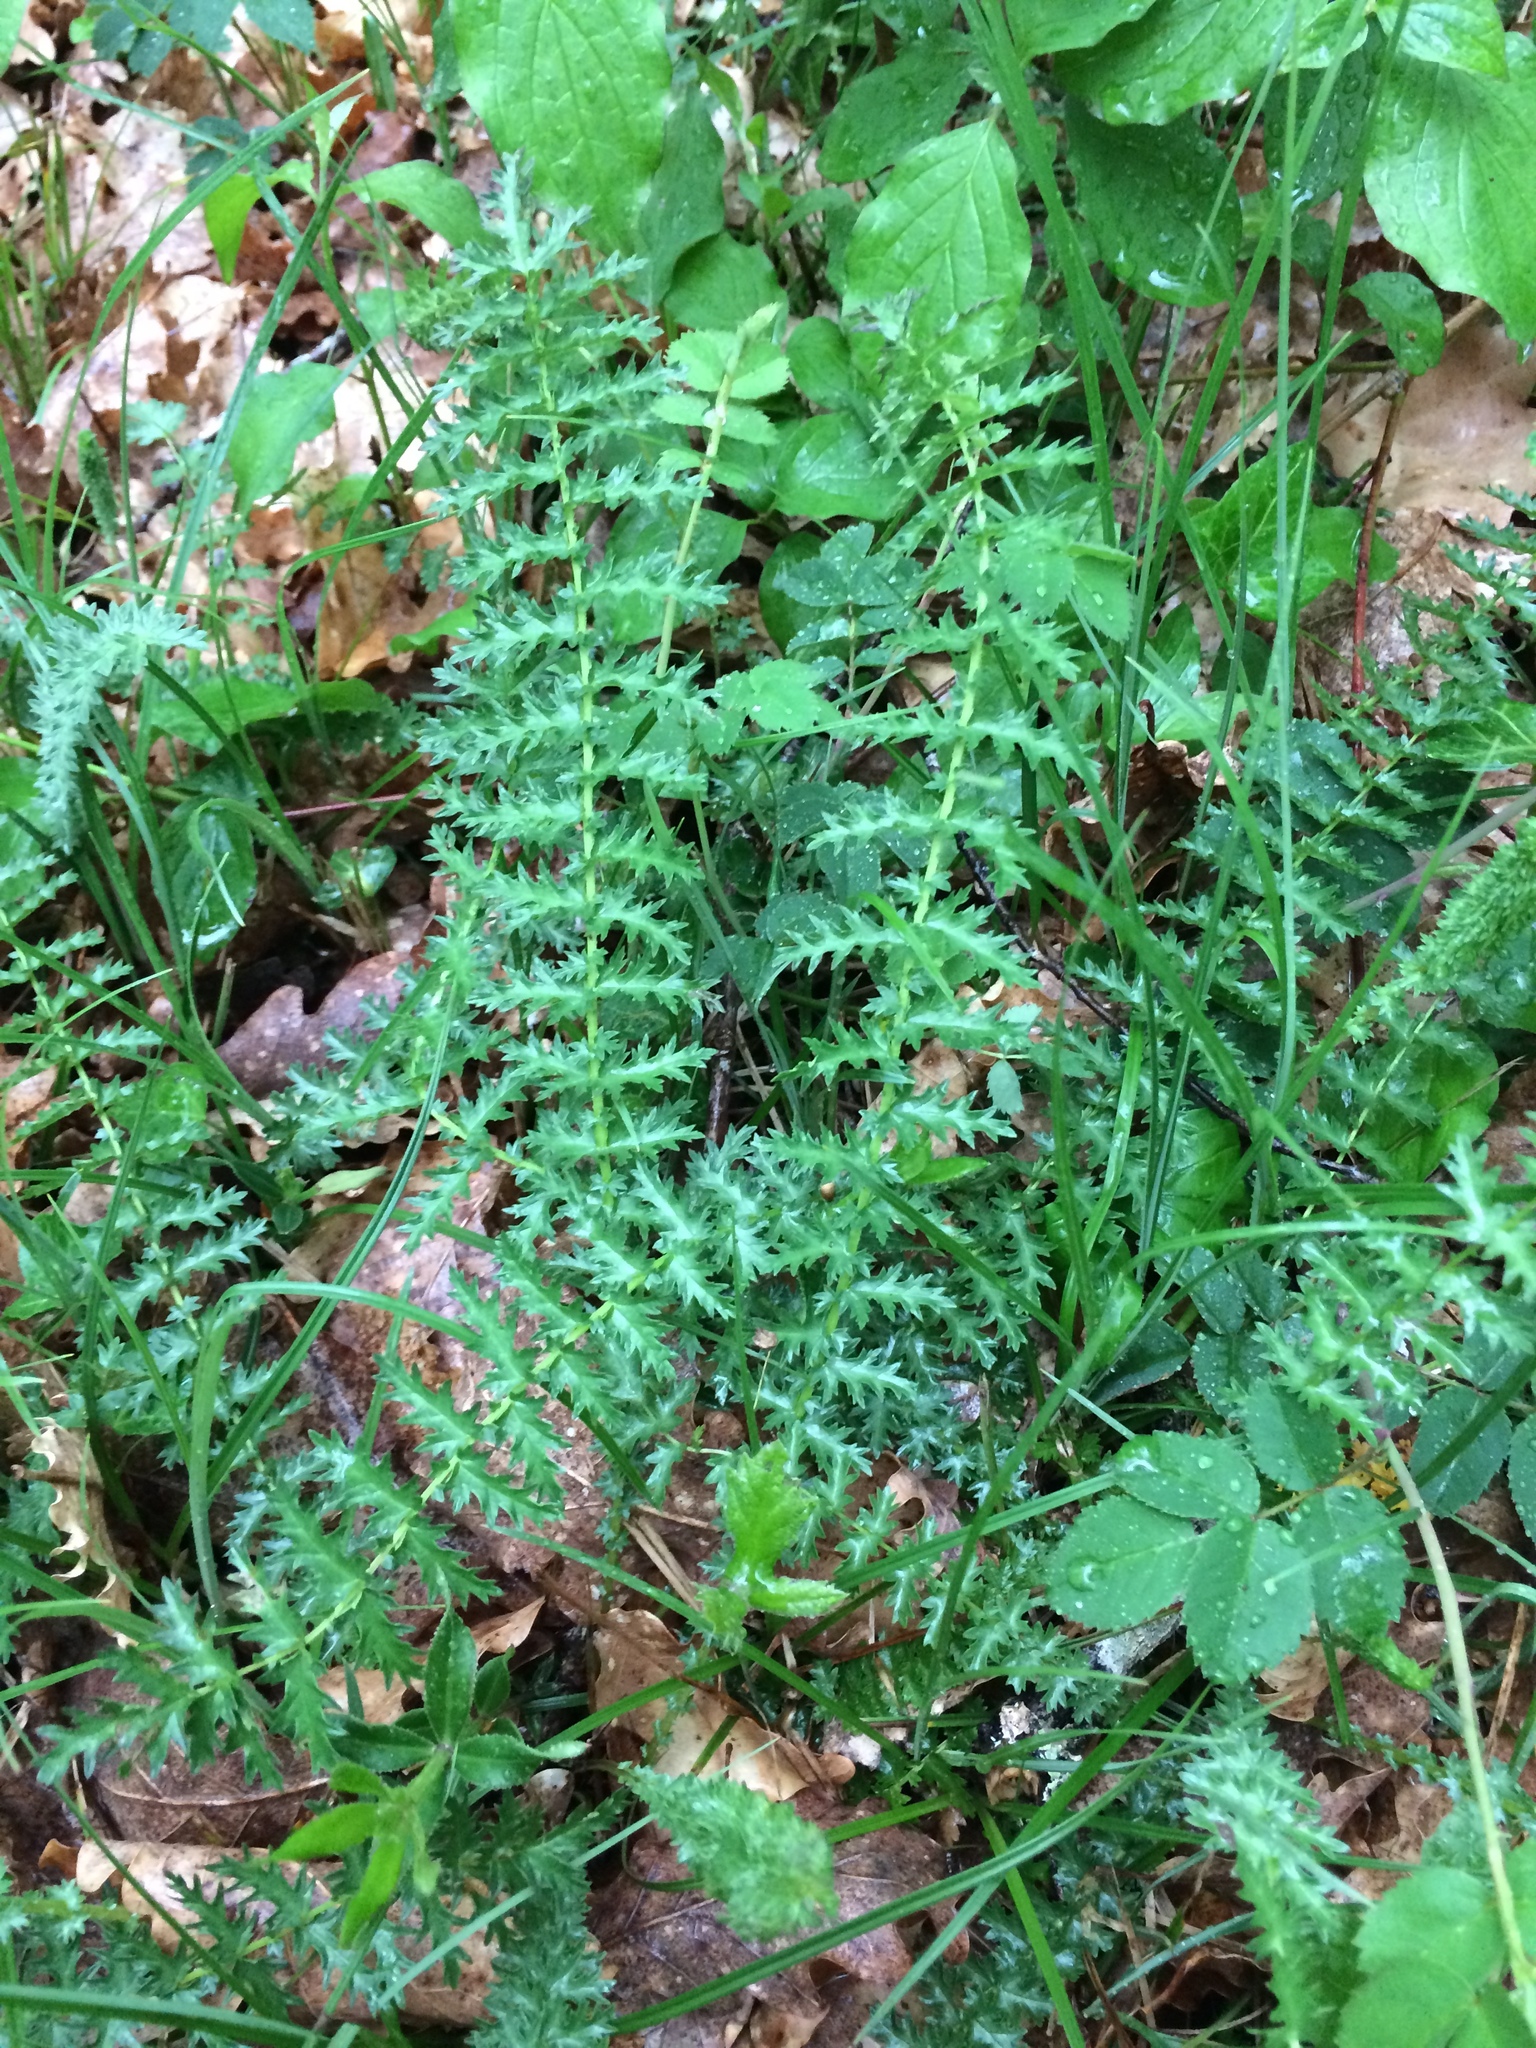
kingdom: Plantae
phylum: Tracheophyta
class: Magnoliopsida
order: Asterales
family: Asteraceae
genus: Achillea
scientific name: Achillea millefolium
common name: Yarrow
